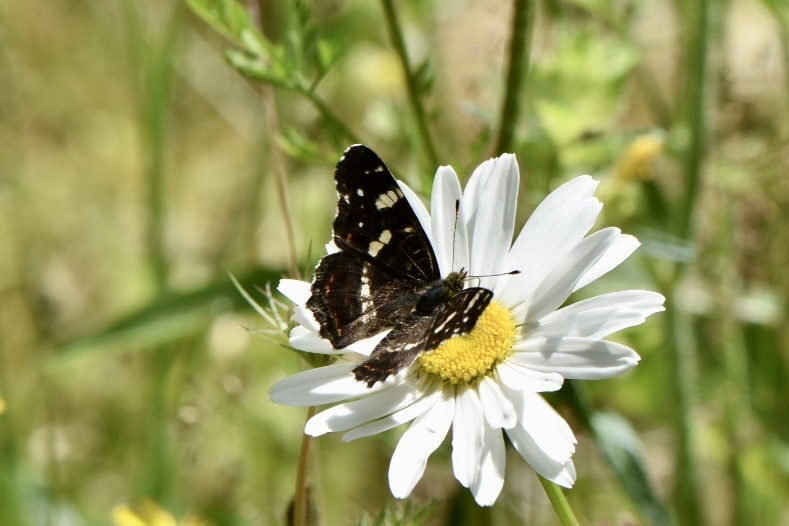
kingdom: Animalia
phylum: Arthropoda
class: Insecta
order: Lepidoptera
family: Nymphalidae
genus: Araschnia
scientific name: Araschnia levana
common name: Map butterfly
